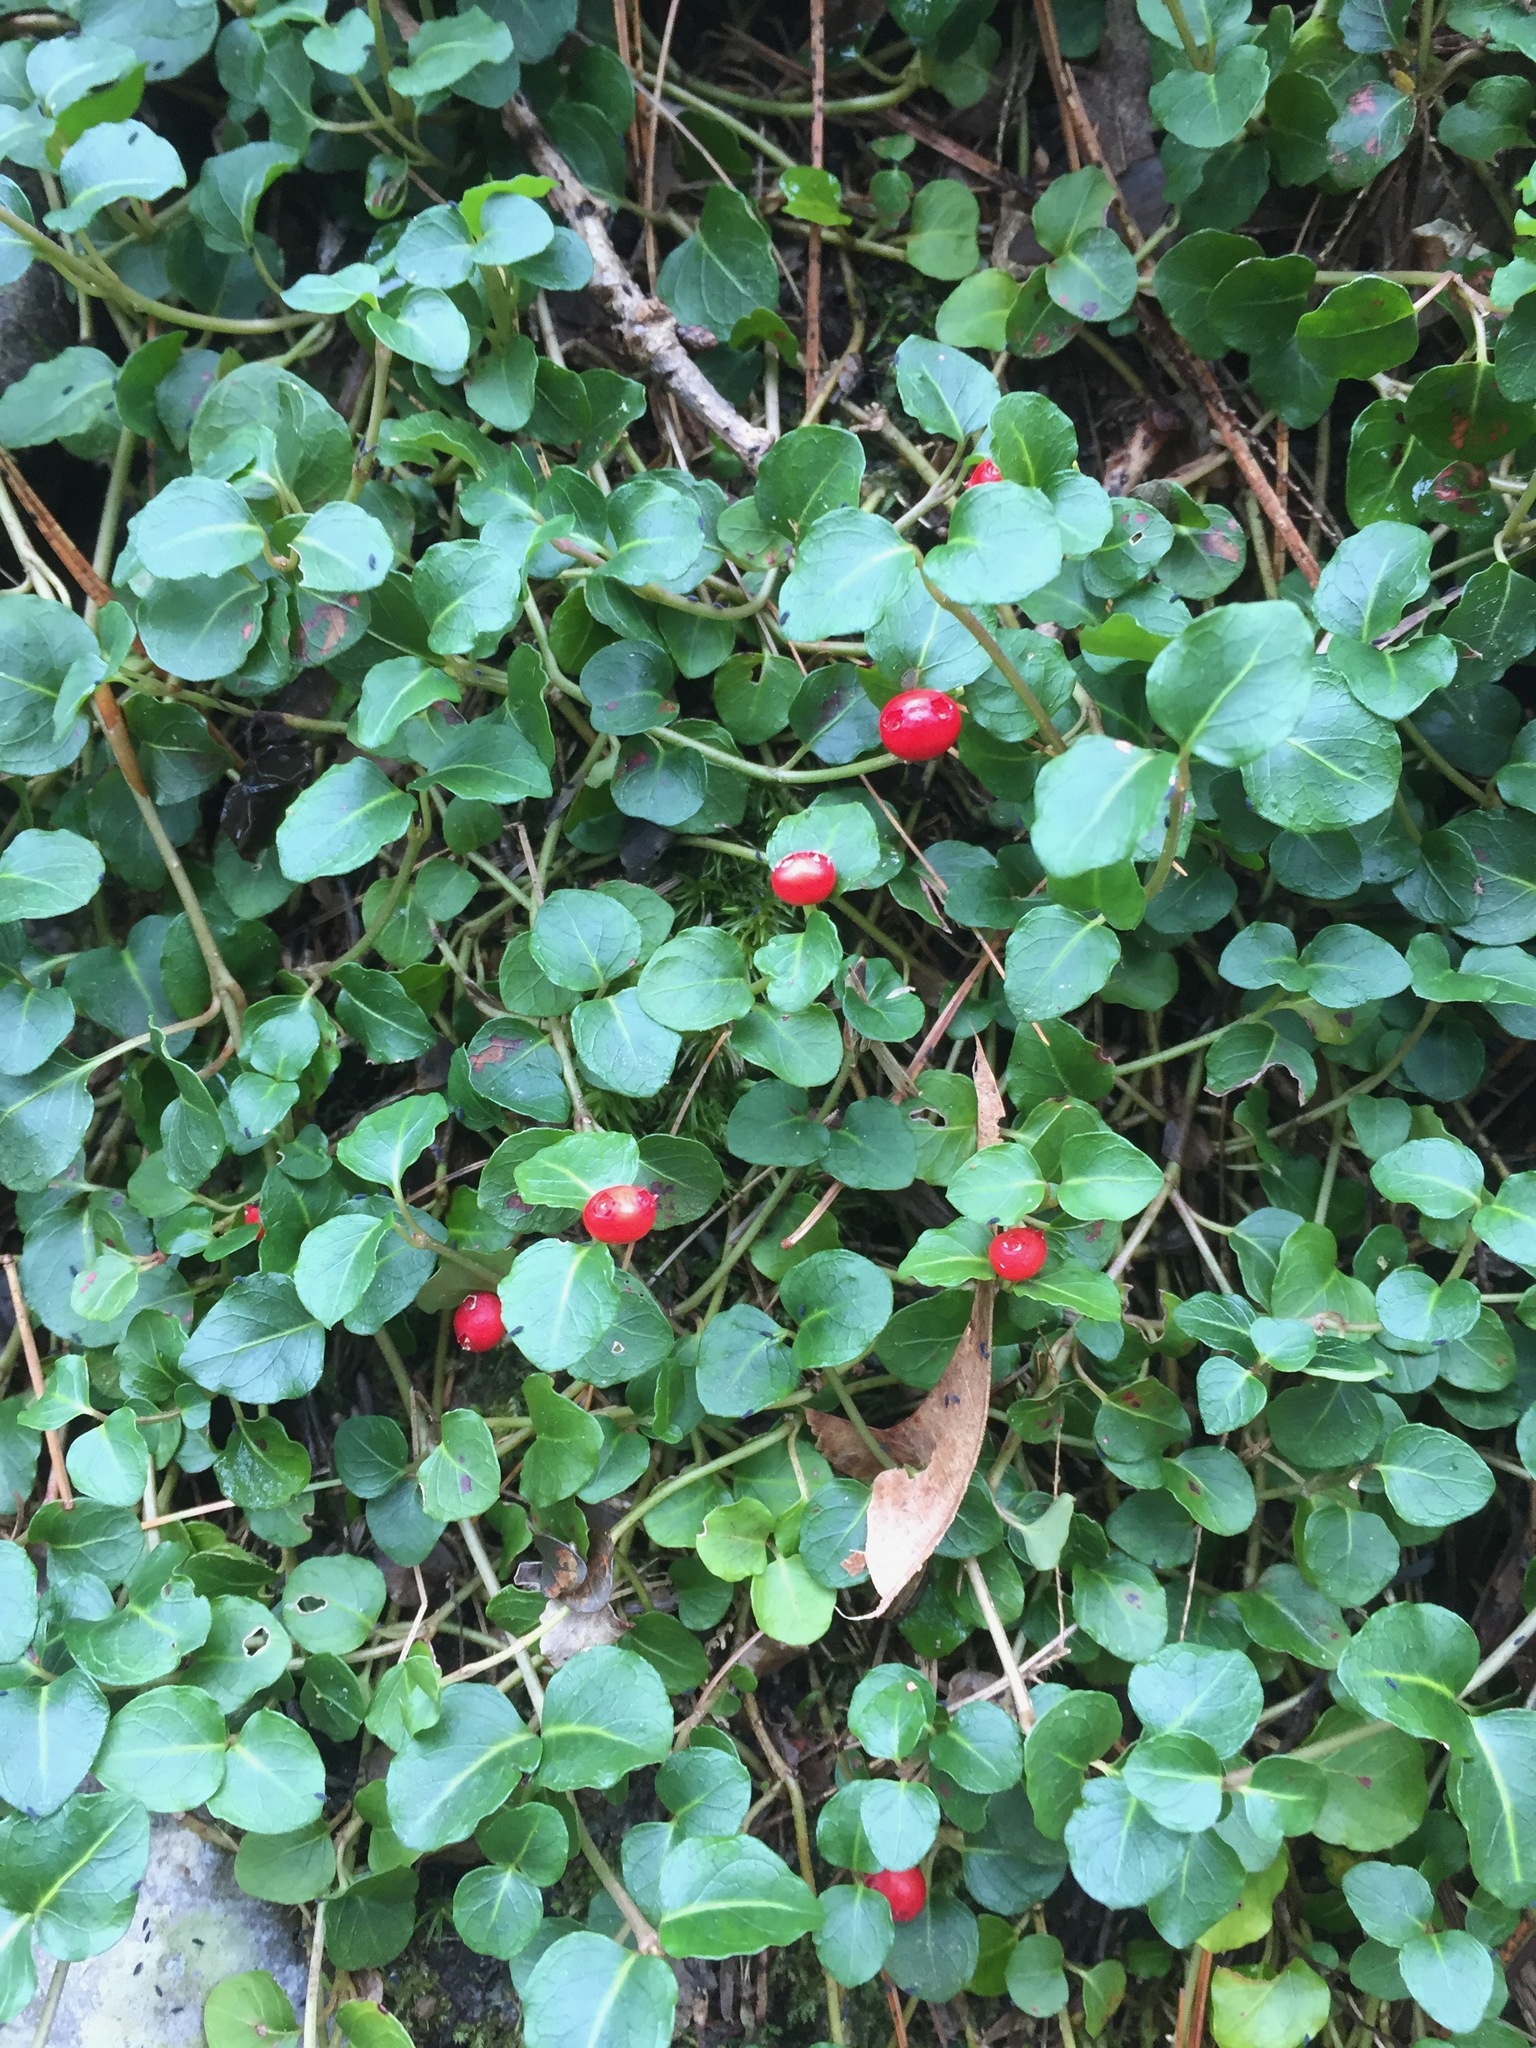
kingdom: Plantae
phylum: Tracheophyta
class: Magnoliopsida
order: Gentianales
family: Rubiaceae
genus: Mitchella
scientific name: Mitchella repens
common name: Partridge-berry
